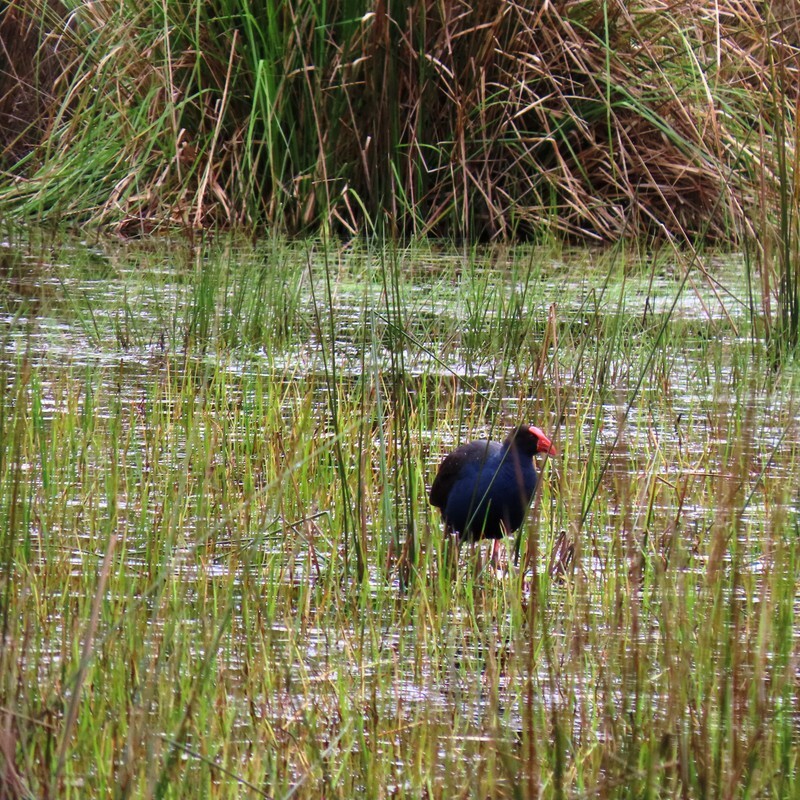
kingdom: Animalia
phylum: Chordata
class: Aves
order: Gruiformes
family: Rallidae
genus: Porphyrio
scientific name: Porphyrio melanotus
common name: Australasian swamphen
